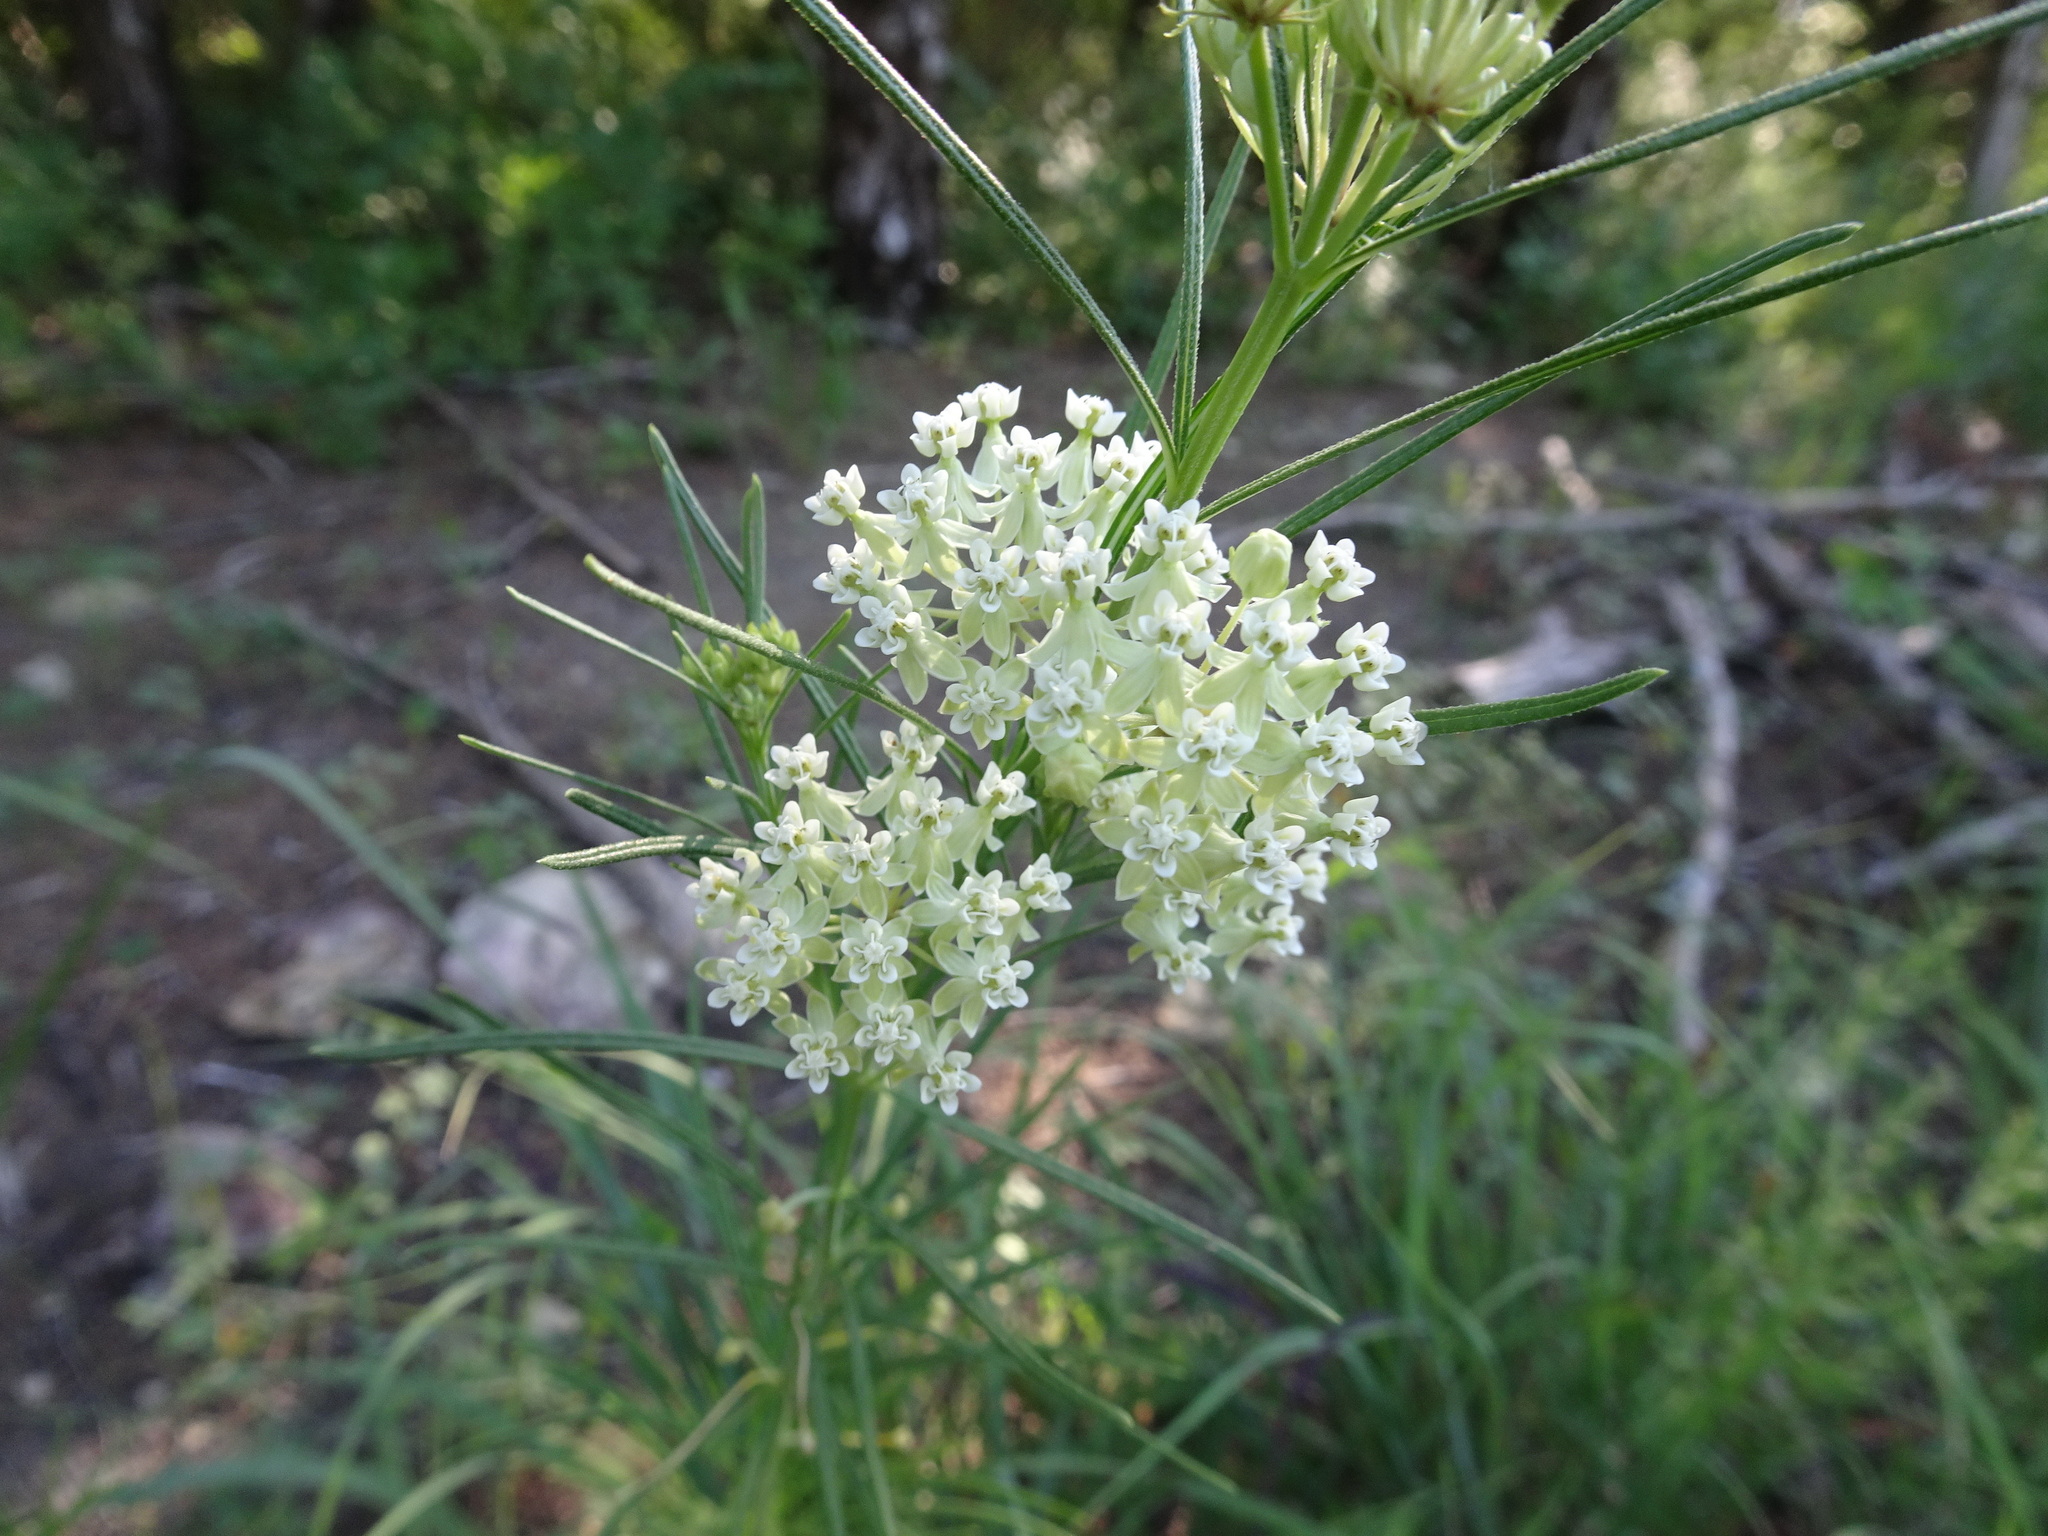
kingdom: Plantae
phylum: Tracheophyta
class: Magnoliopsida
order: Gentianales
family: Apocynaceae
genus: Asclepias
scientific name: Asclepias verticillata
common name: Eastern whorled milkweed
